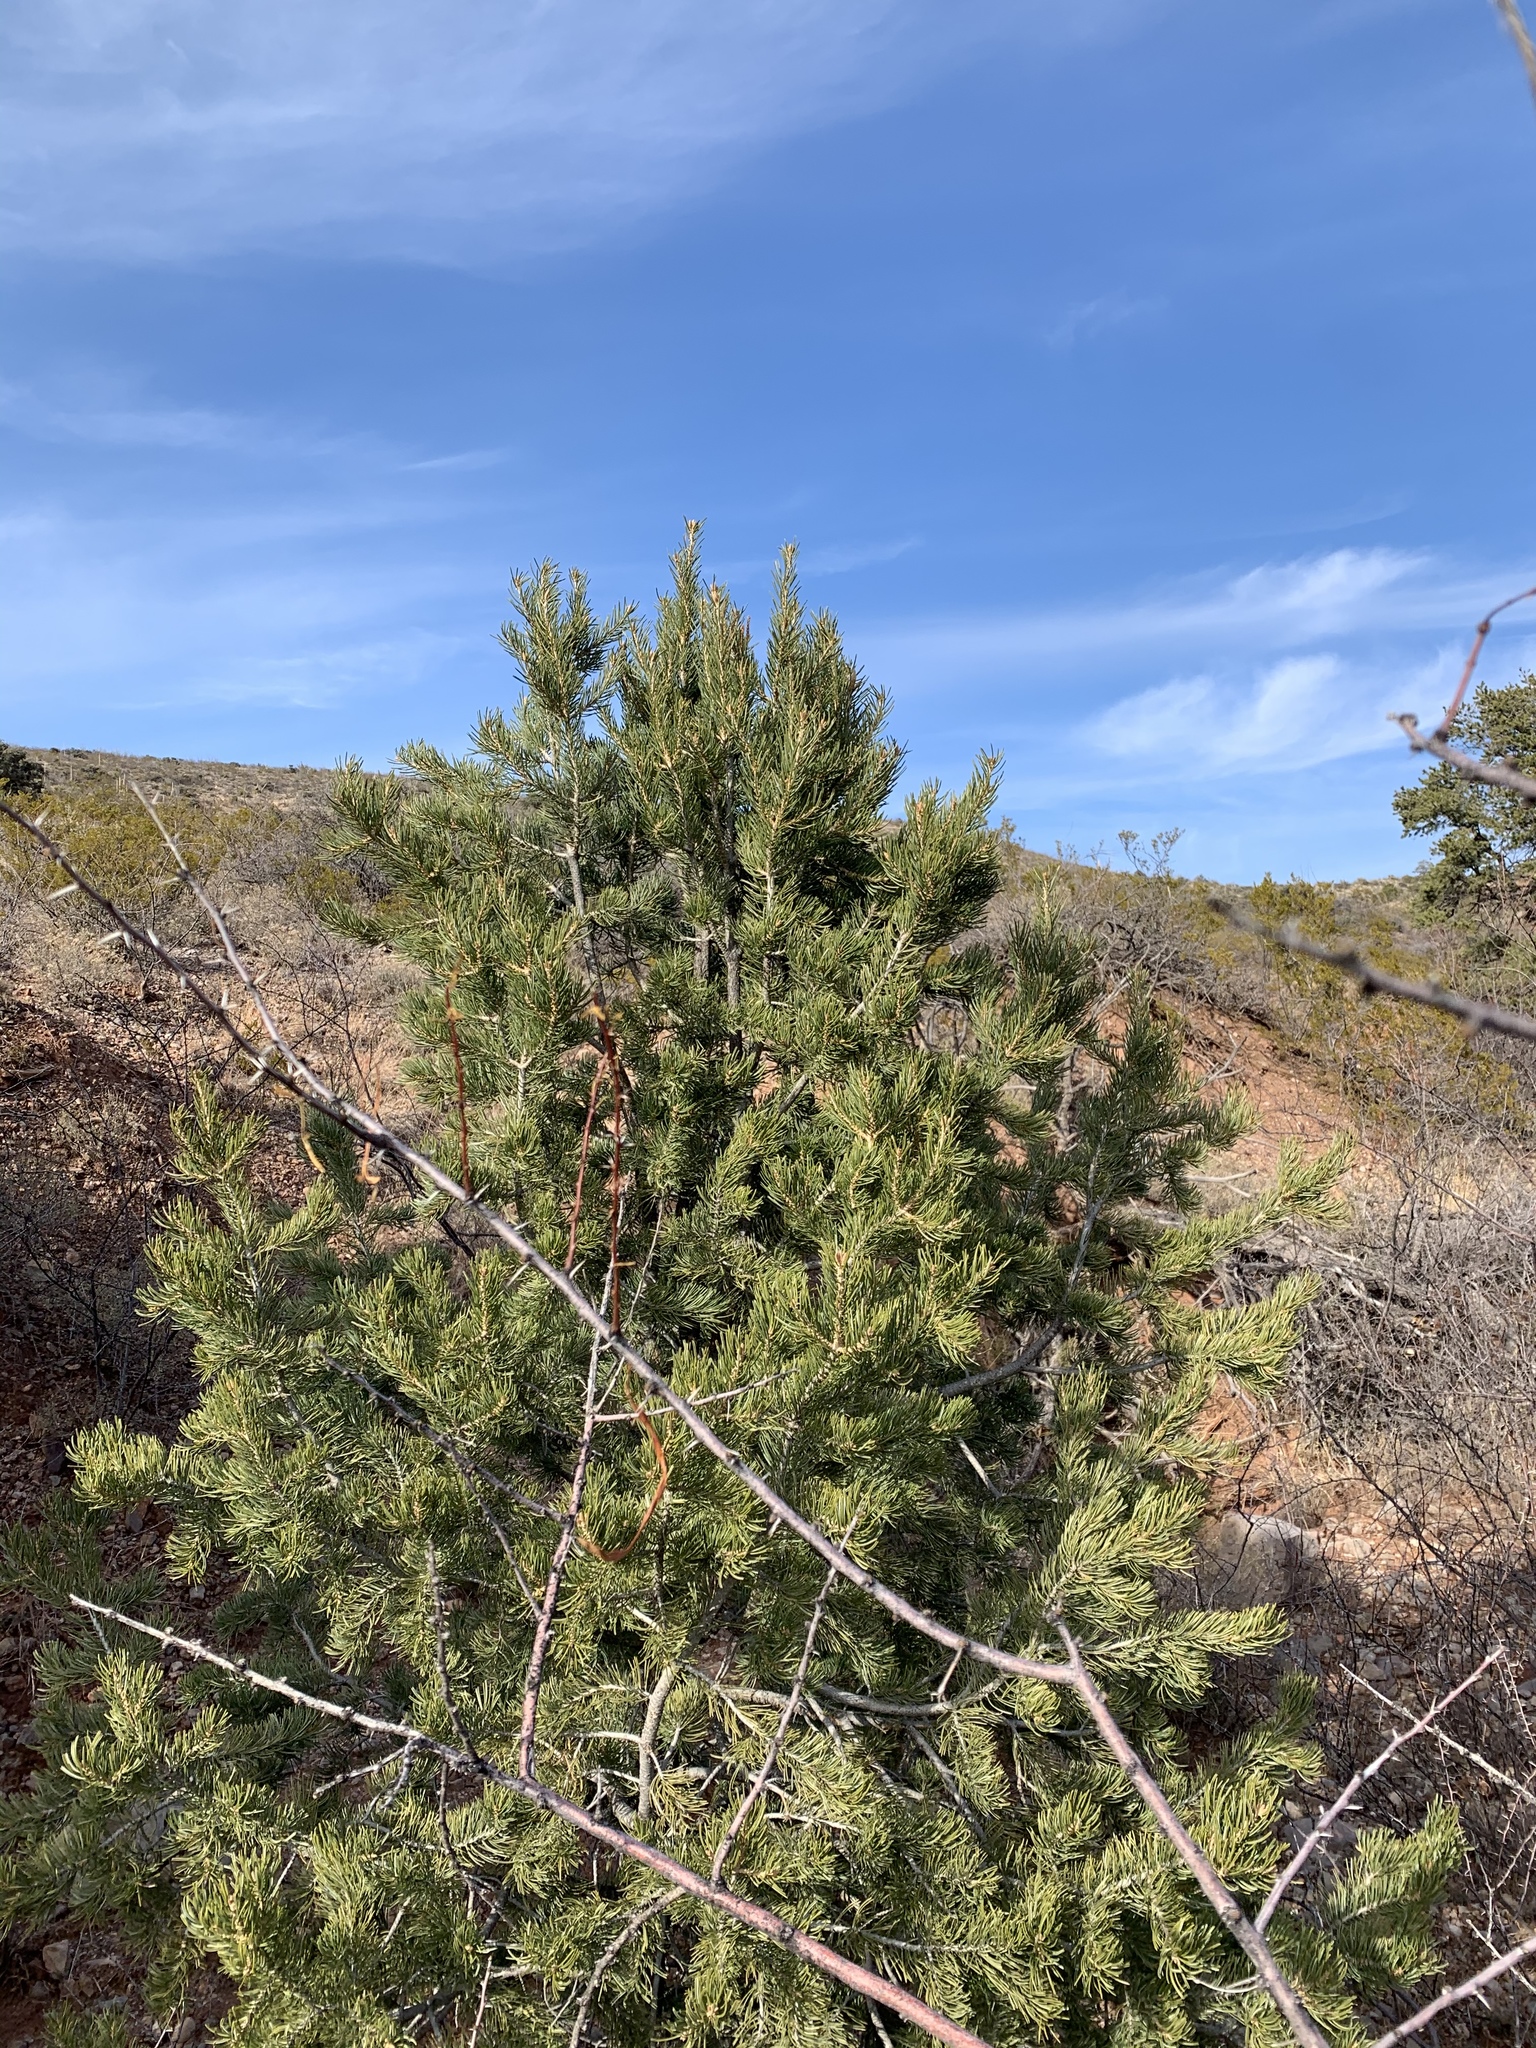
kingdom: Plantae
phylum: Tracheophyta
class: Pinopsida
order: Pinales
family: Pinaceae
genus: Pinus
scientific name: Pinus edulis
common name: Colorado pinyon
